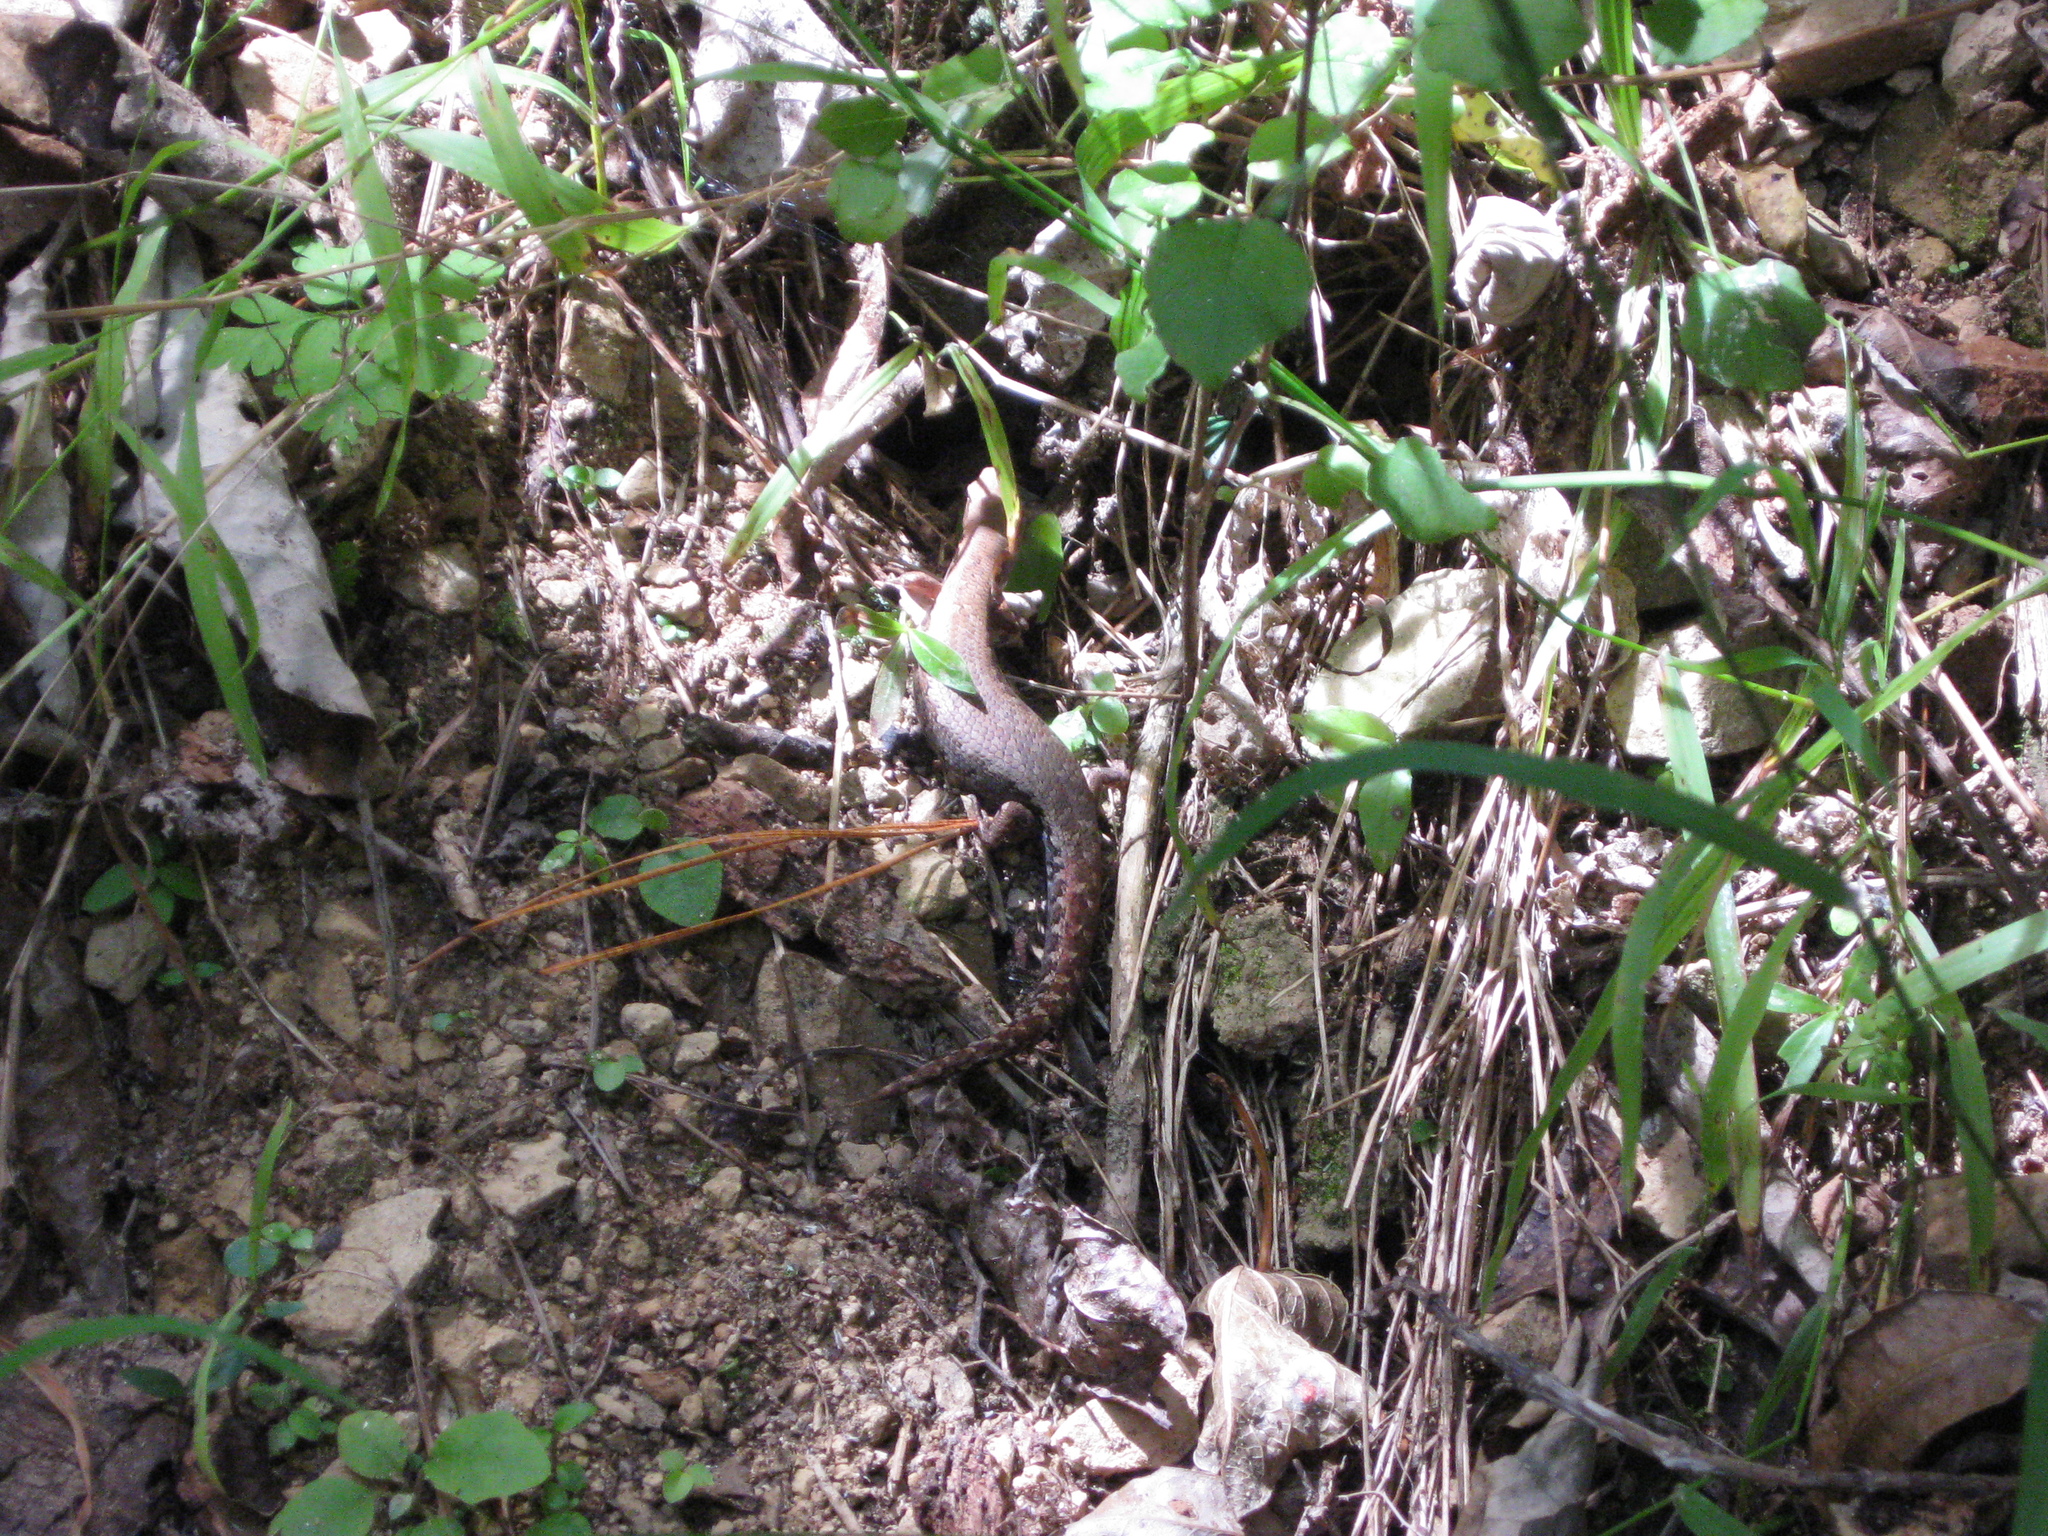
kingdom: Animalia
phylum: Chordata
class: Squamata
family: Scincidae
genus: Oligosoma
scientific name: Oligosoma ornatum
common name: Gray's ornate skink
